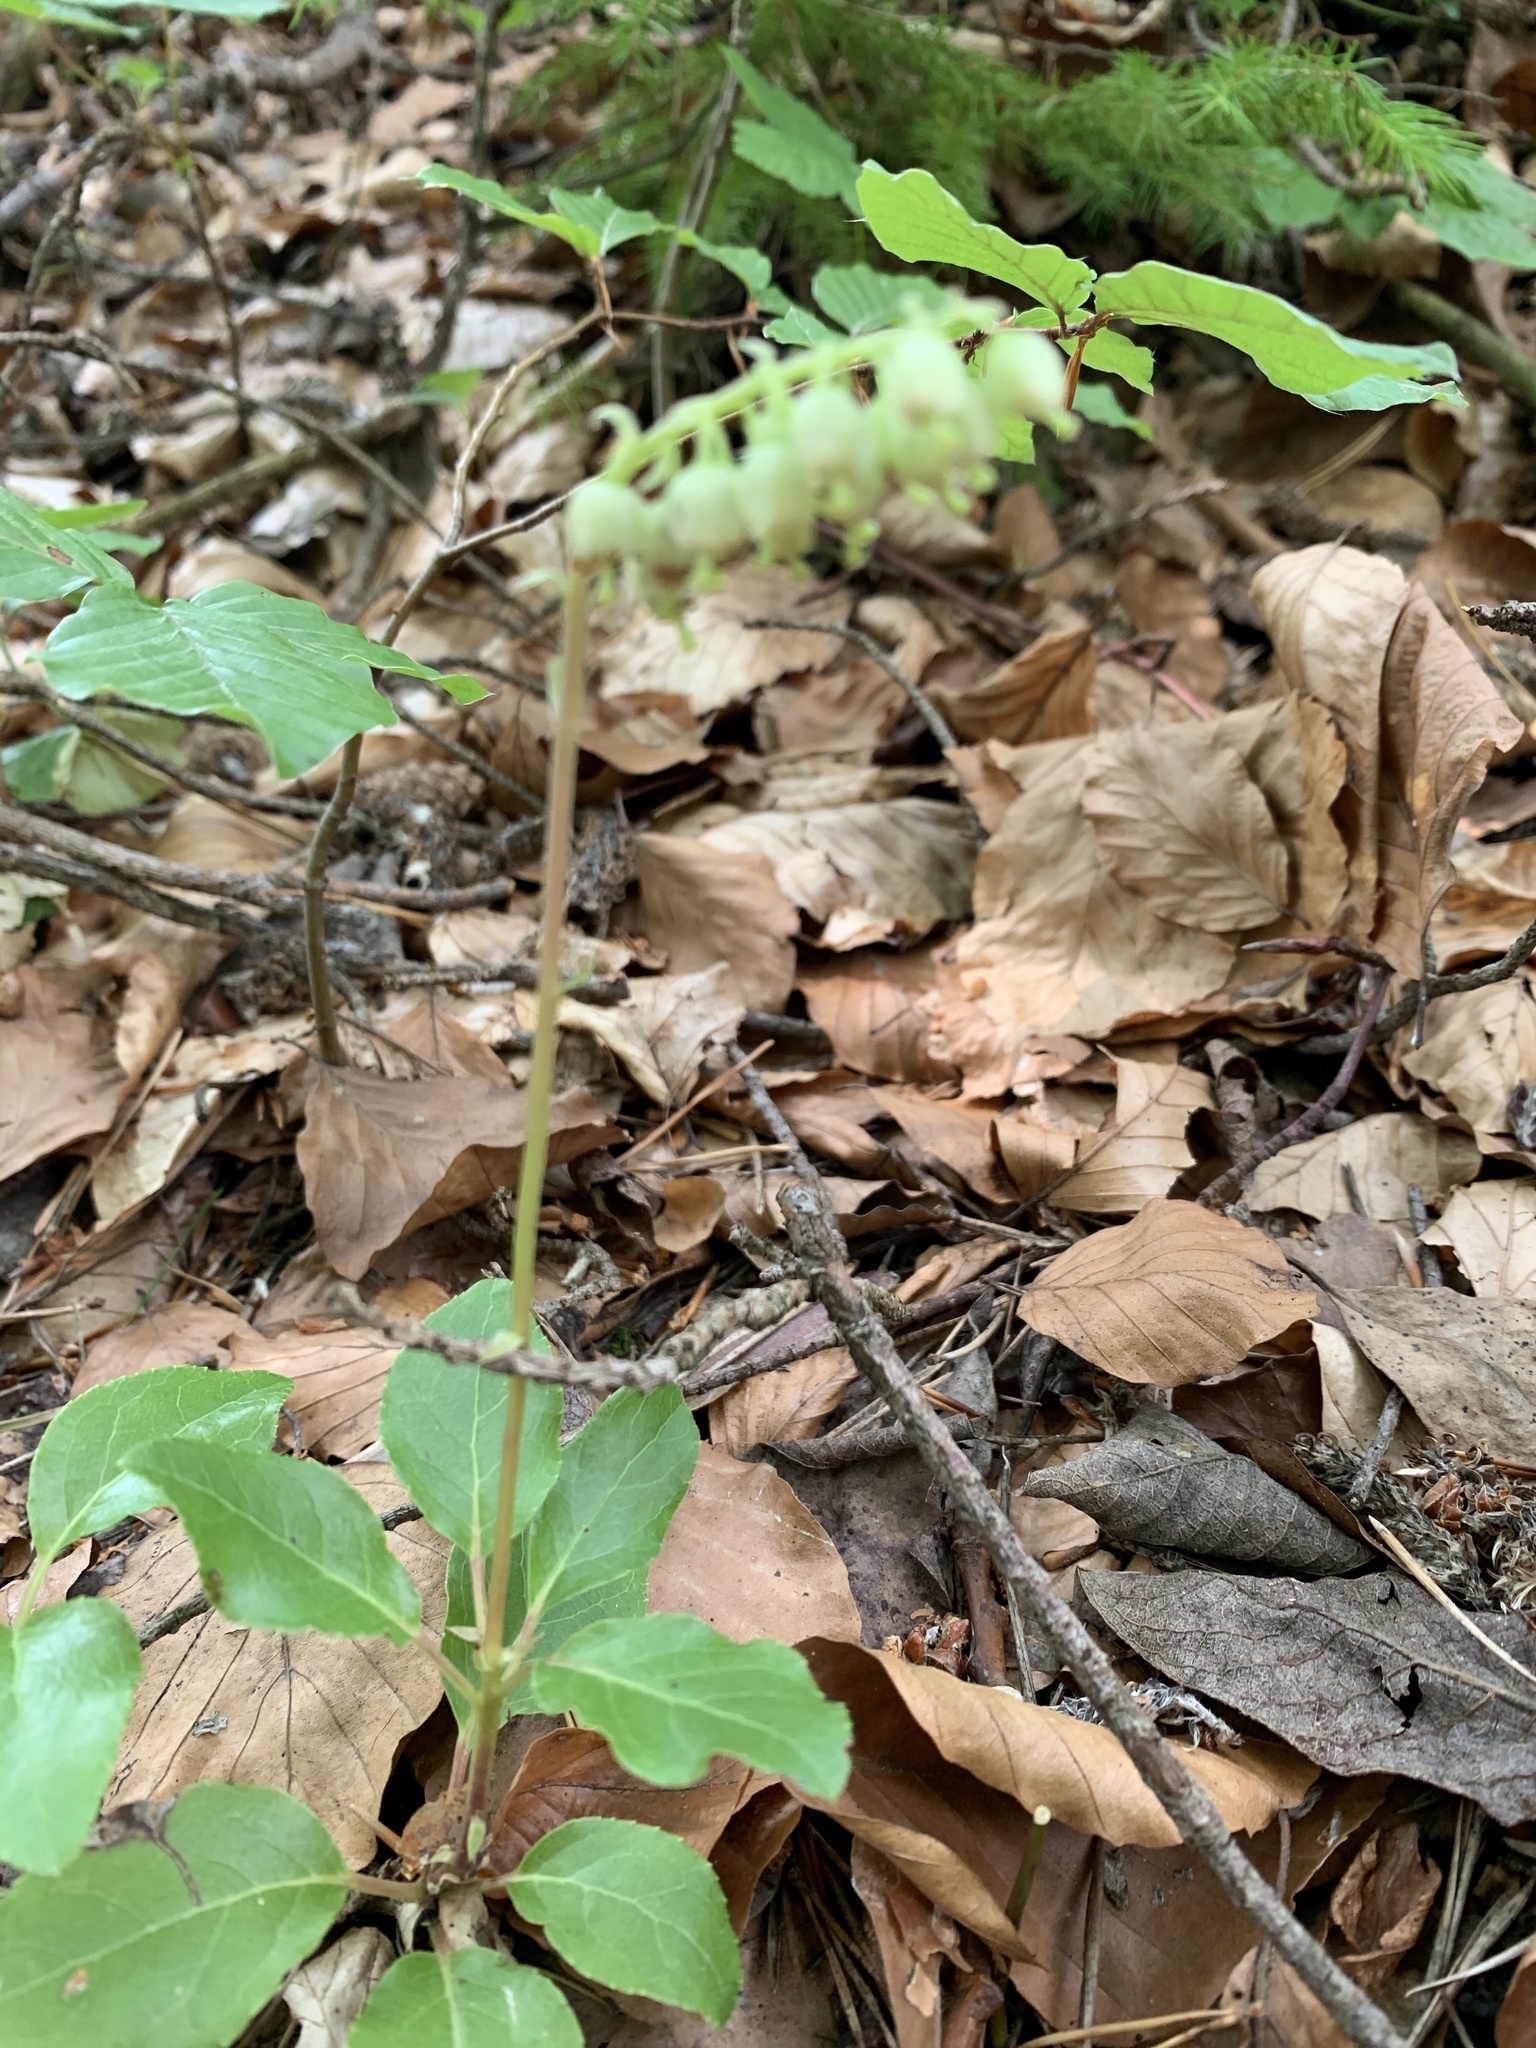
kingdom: Plantae
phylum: Tracheophyta
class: Magnoliopsida
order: Ericales
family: Ericaceae
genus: Orthilia
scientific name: Orthilia secunda
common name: One-sided orthilia
